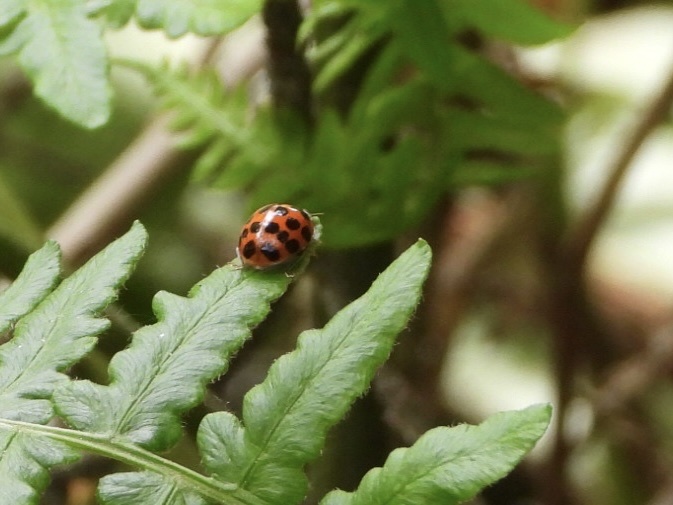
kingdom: Animalia
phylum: Arthropoda
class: Insecta
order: Coleoptera
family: Coccinellidae
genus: Harmonia
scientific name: Harmonia axyridis
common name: Harlequin ladybird
